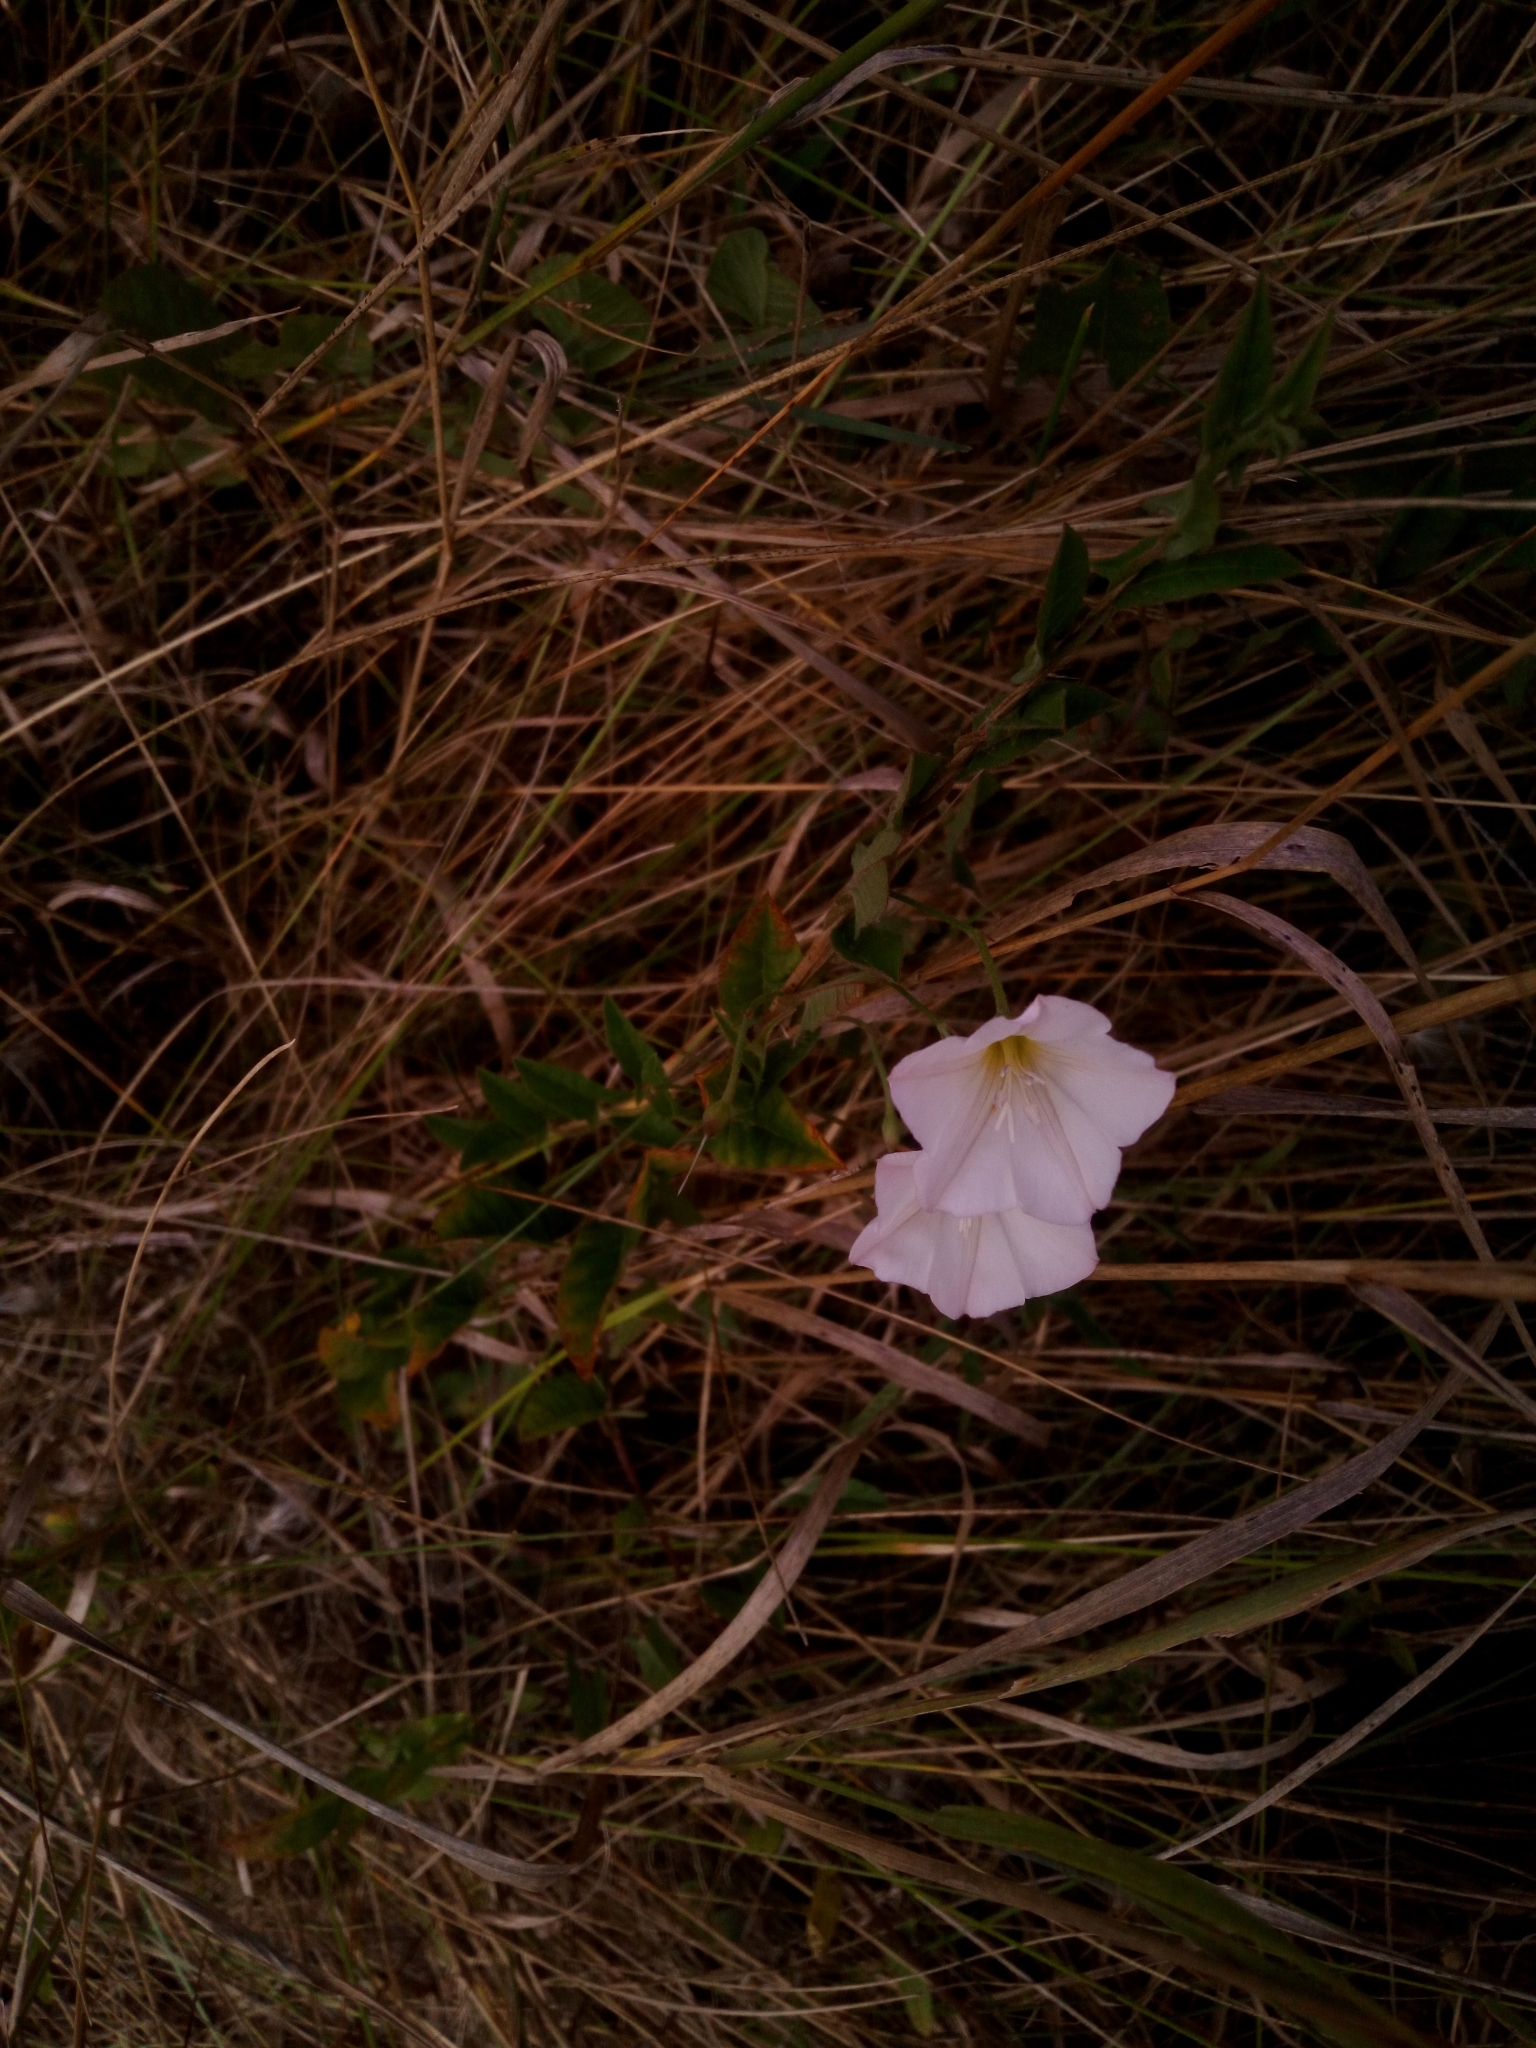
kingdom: Plantae
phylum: Tracheophyta
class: Magnoliopsida
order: Solanales
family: Convolvulaceae
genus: Convolvulus
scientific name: Convolvulus arvensis
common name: Field bindweed
